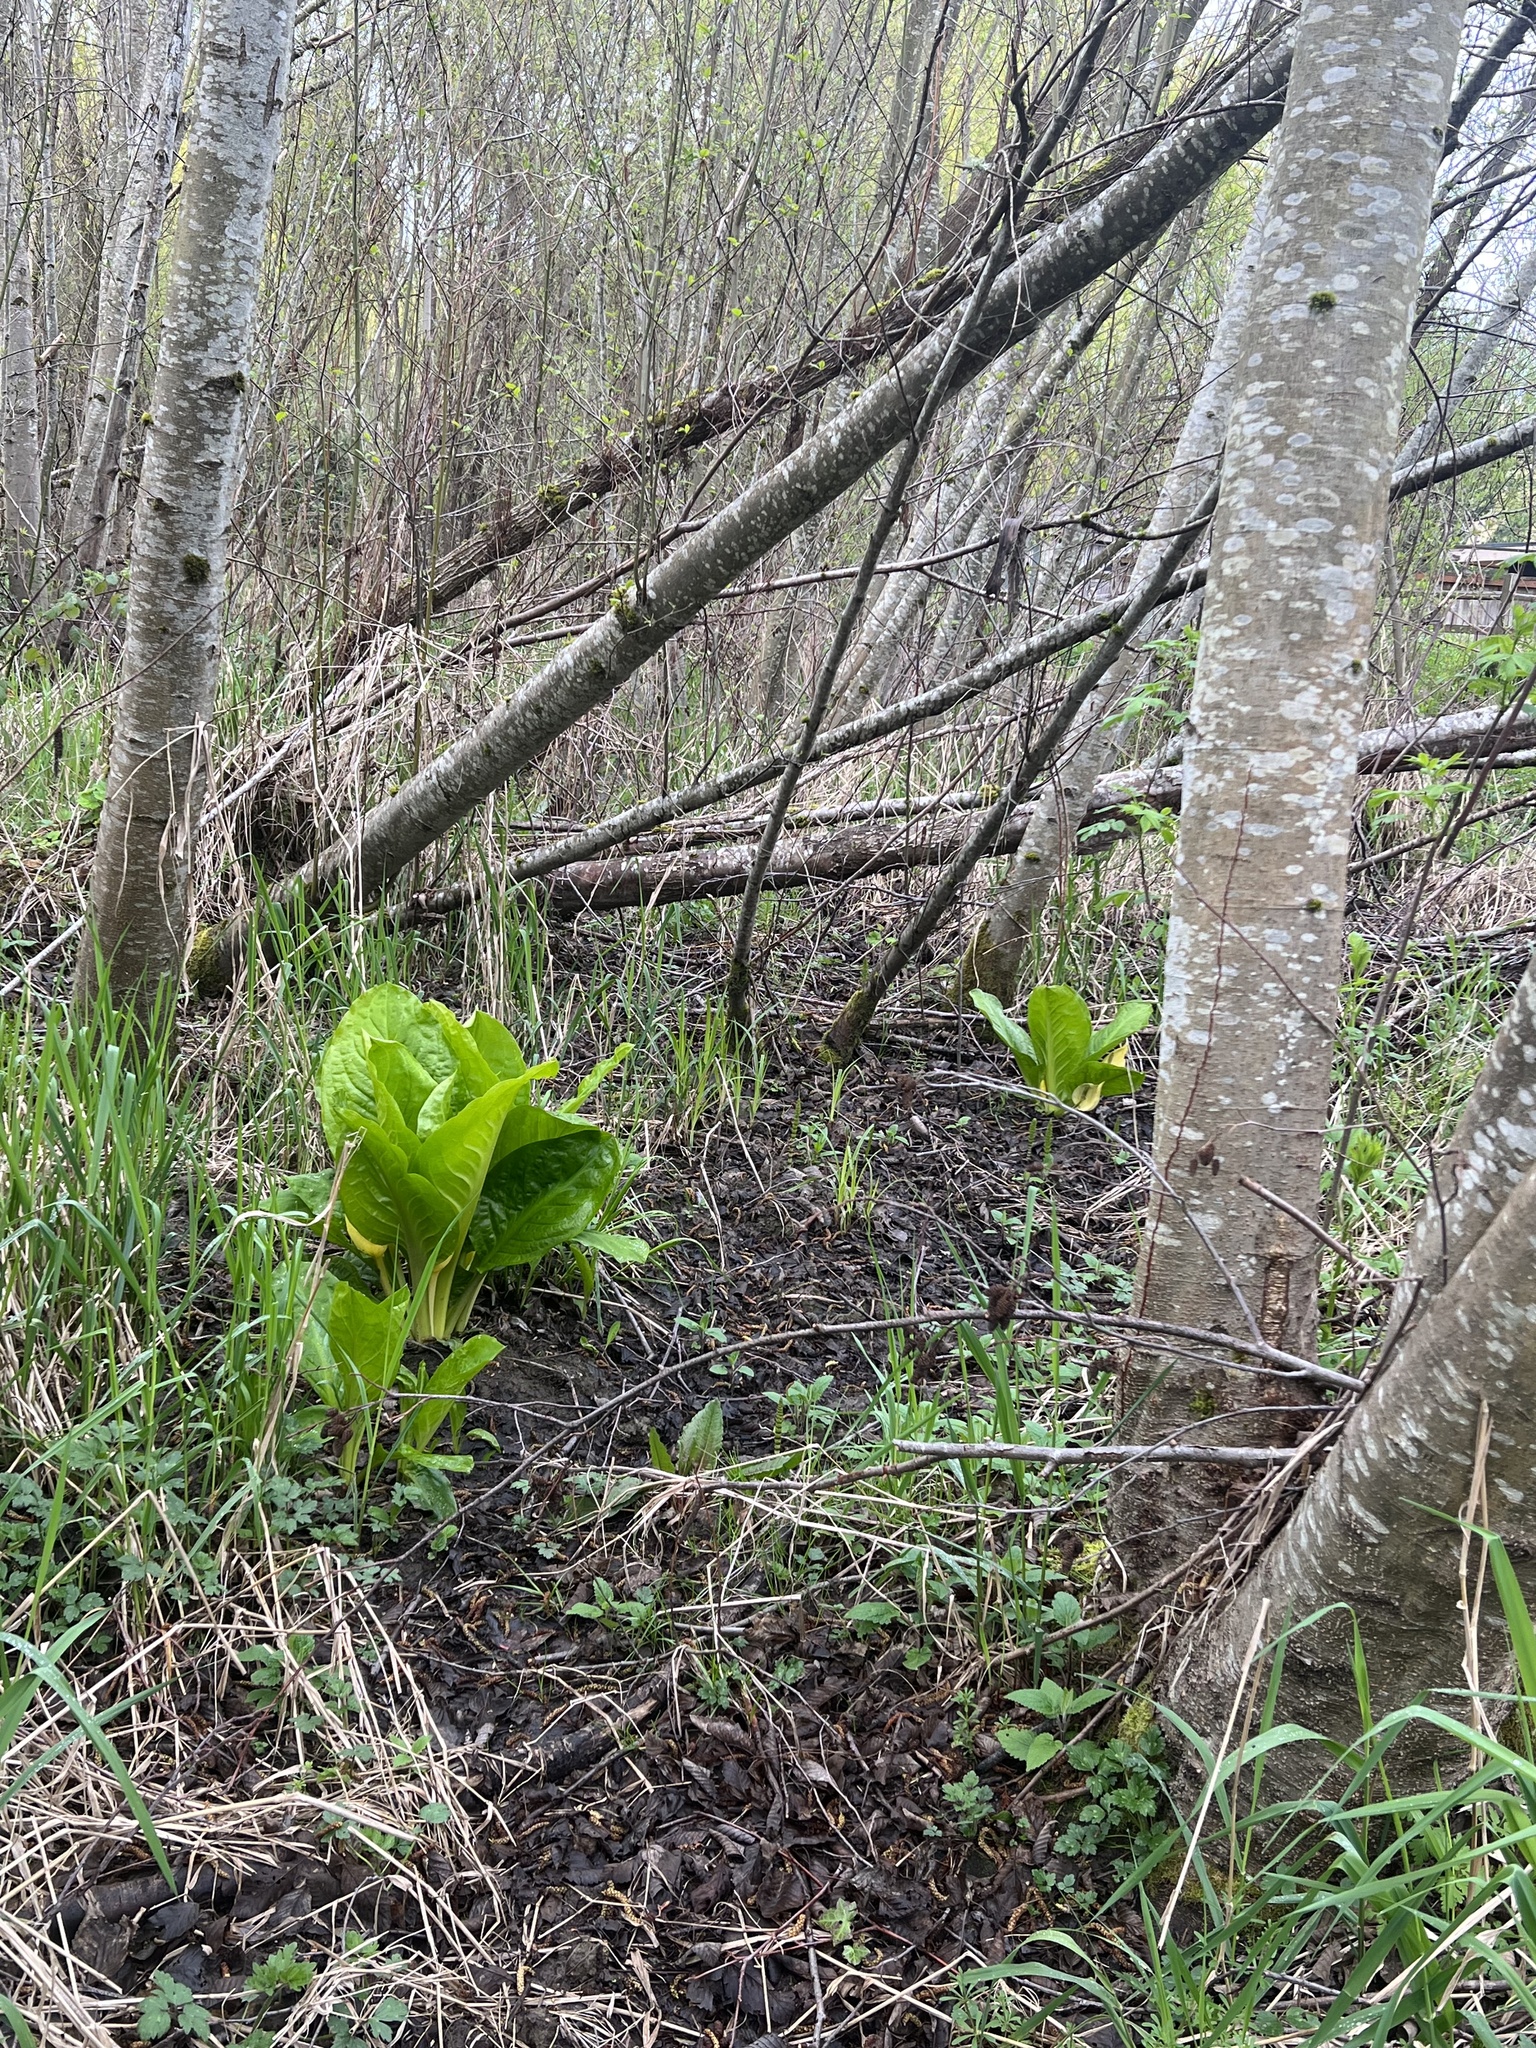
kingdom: Plantae
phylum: Tracheophyta
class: Liliopsida
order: Alismatales
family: Araceae
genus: Lysichiton
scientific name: Lysichiton americanus
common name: American skunk cabbage
